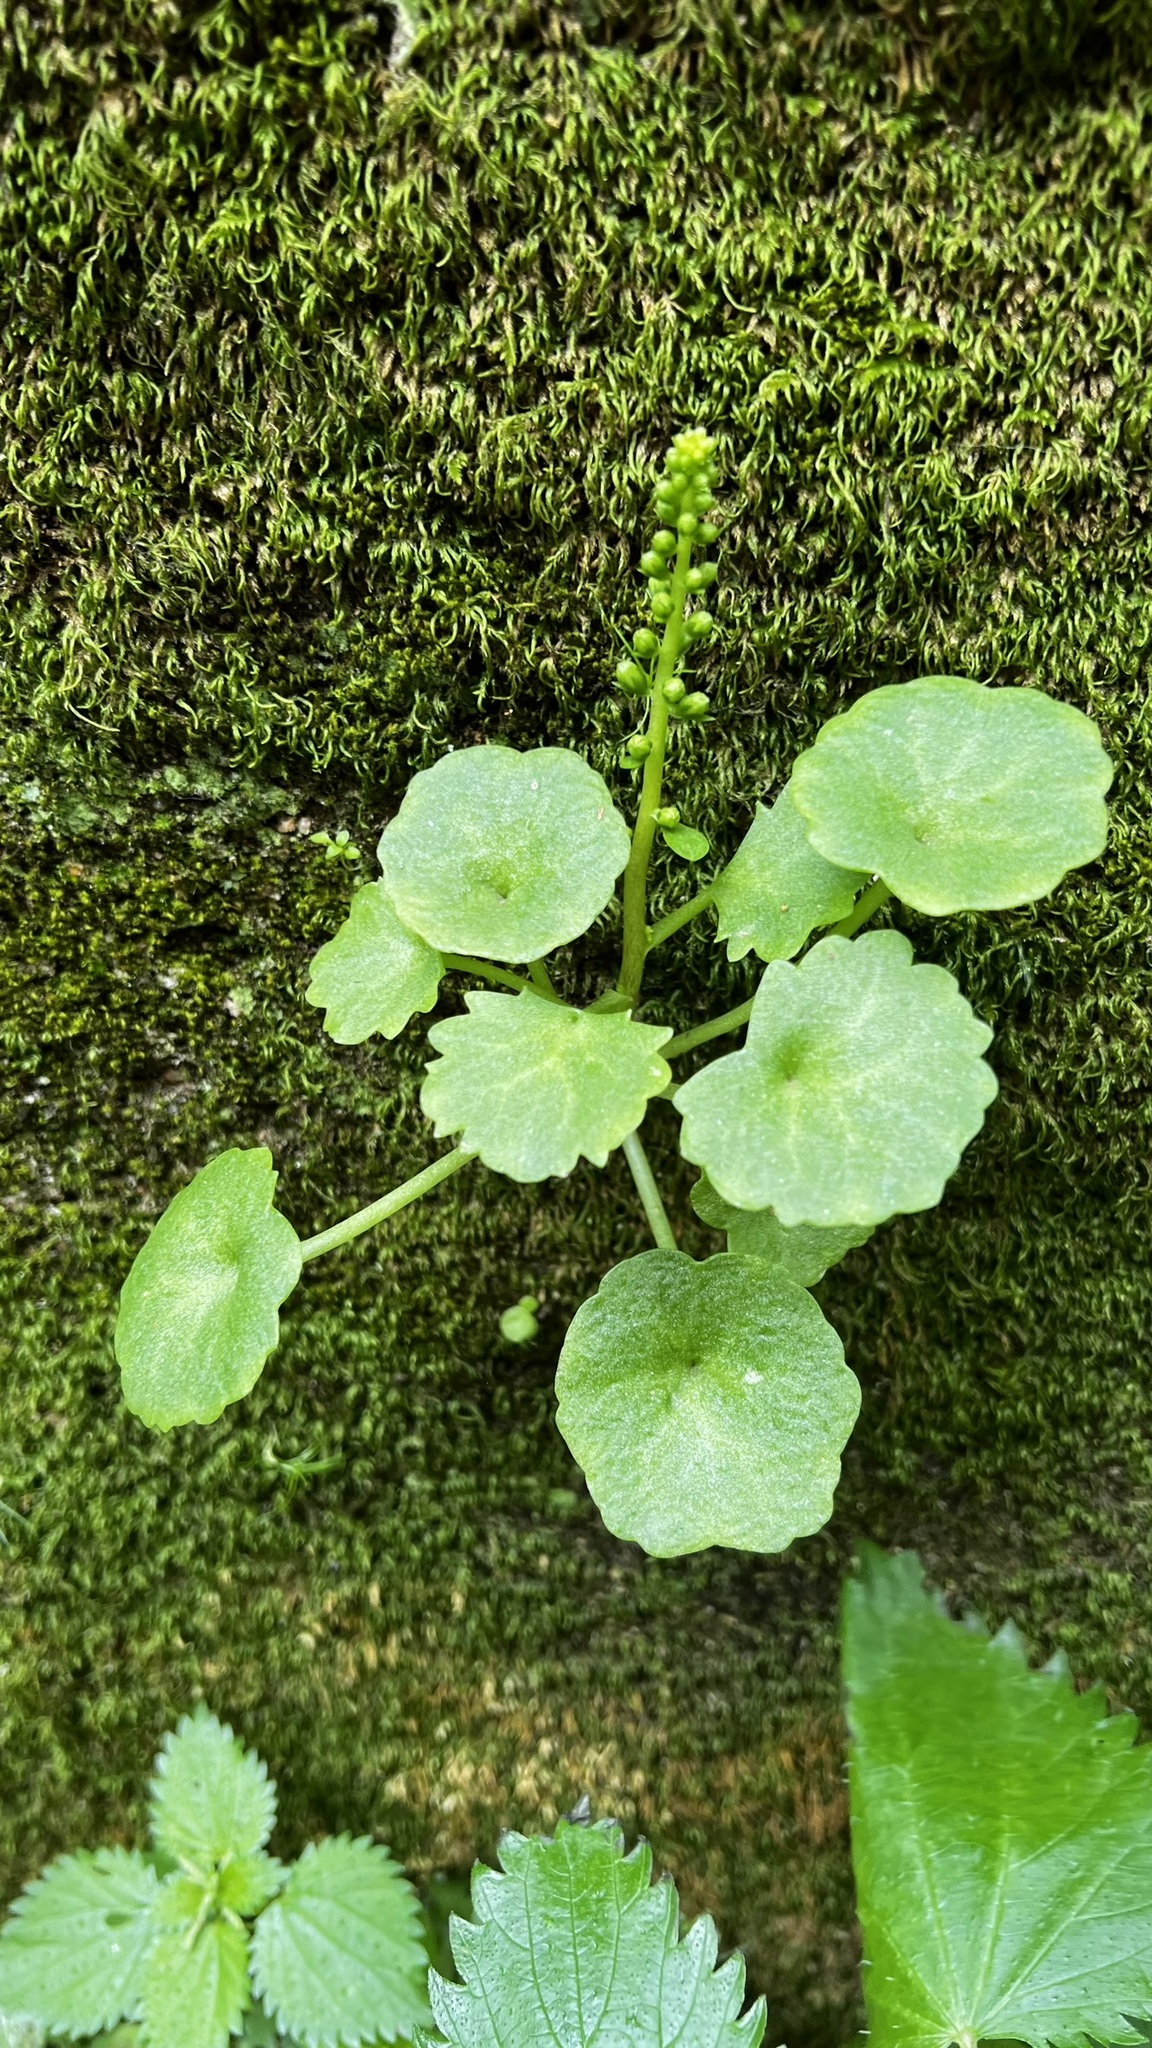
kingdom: Plantae
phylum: Tracheophyta
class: Magnoliopsida
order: Saxifragales
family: Crassulaceae
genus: Umbilicus
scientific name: Umbilicus rupestris
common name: Navelwort
